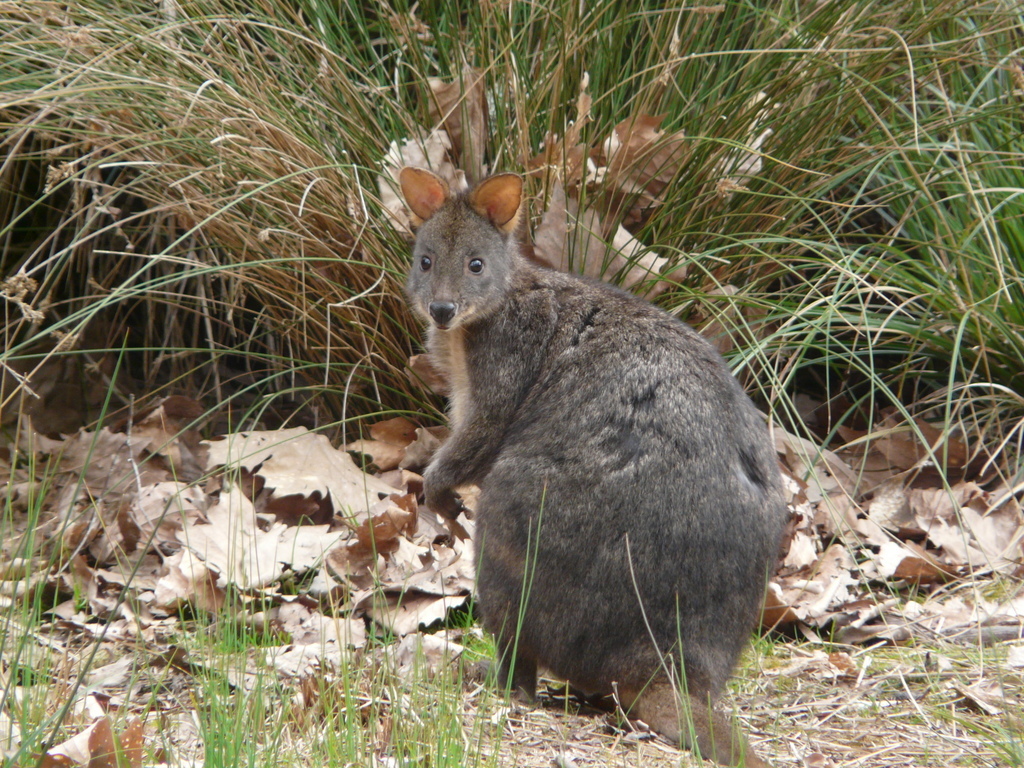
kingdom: Animalia
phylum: Chordata
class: Mammalia
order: Diprotodontia
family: Macropodidae
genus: Thylogale
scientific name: Thylogale billardierii
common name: Tasmanian pademelon
